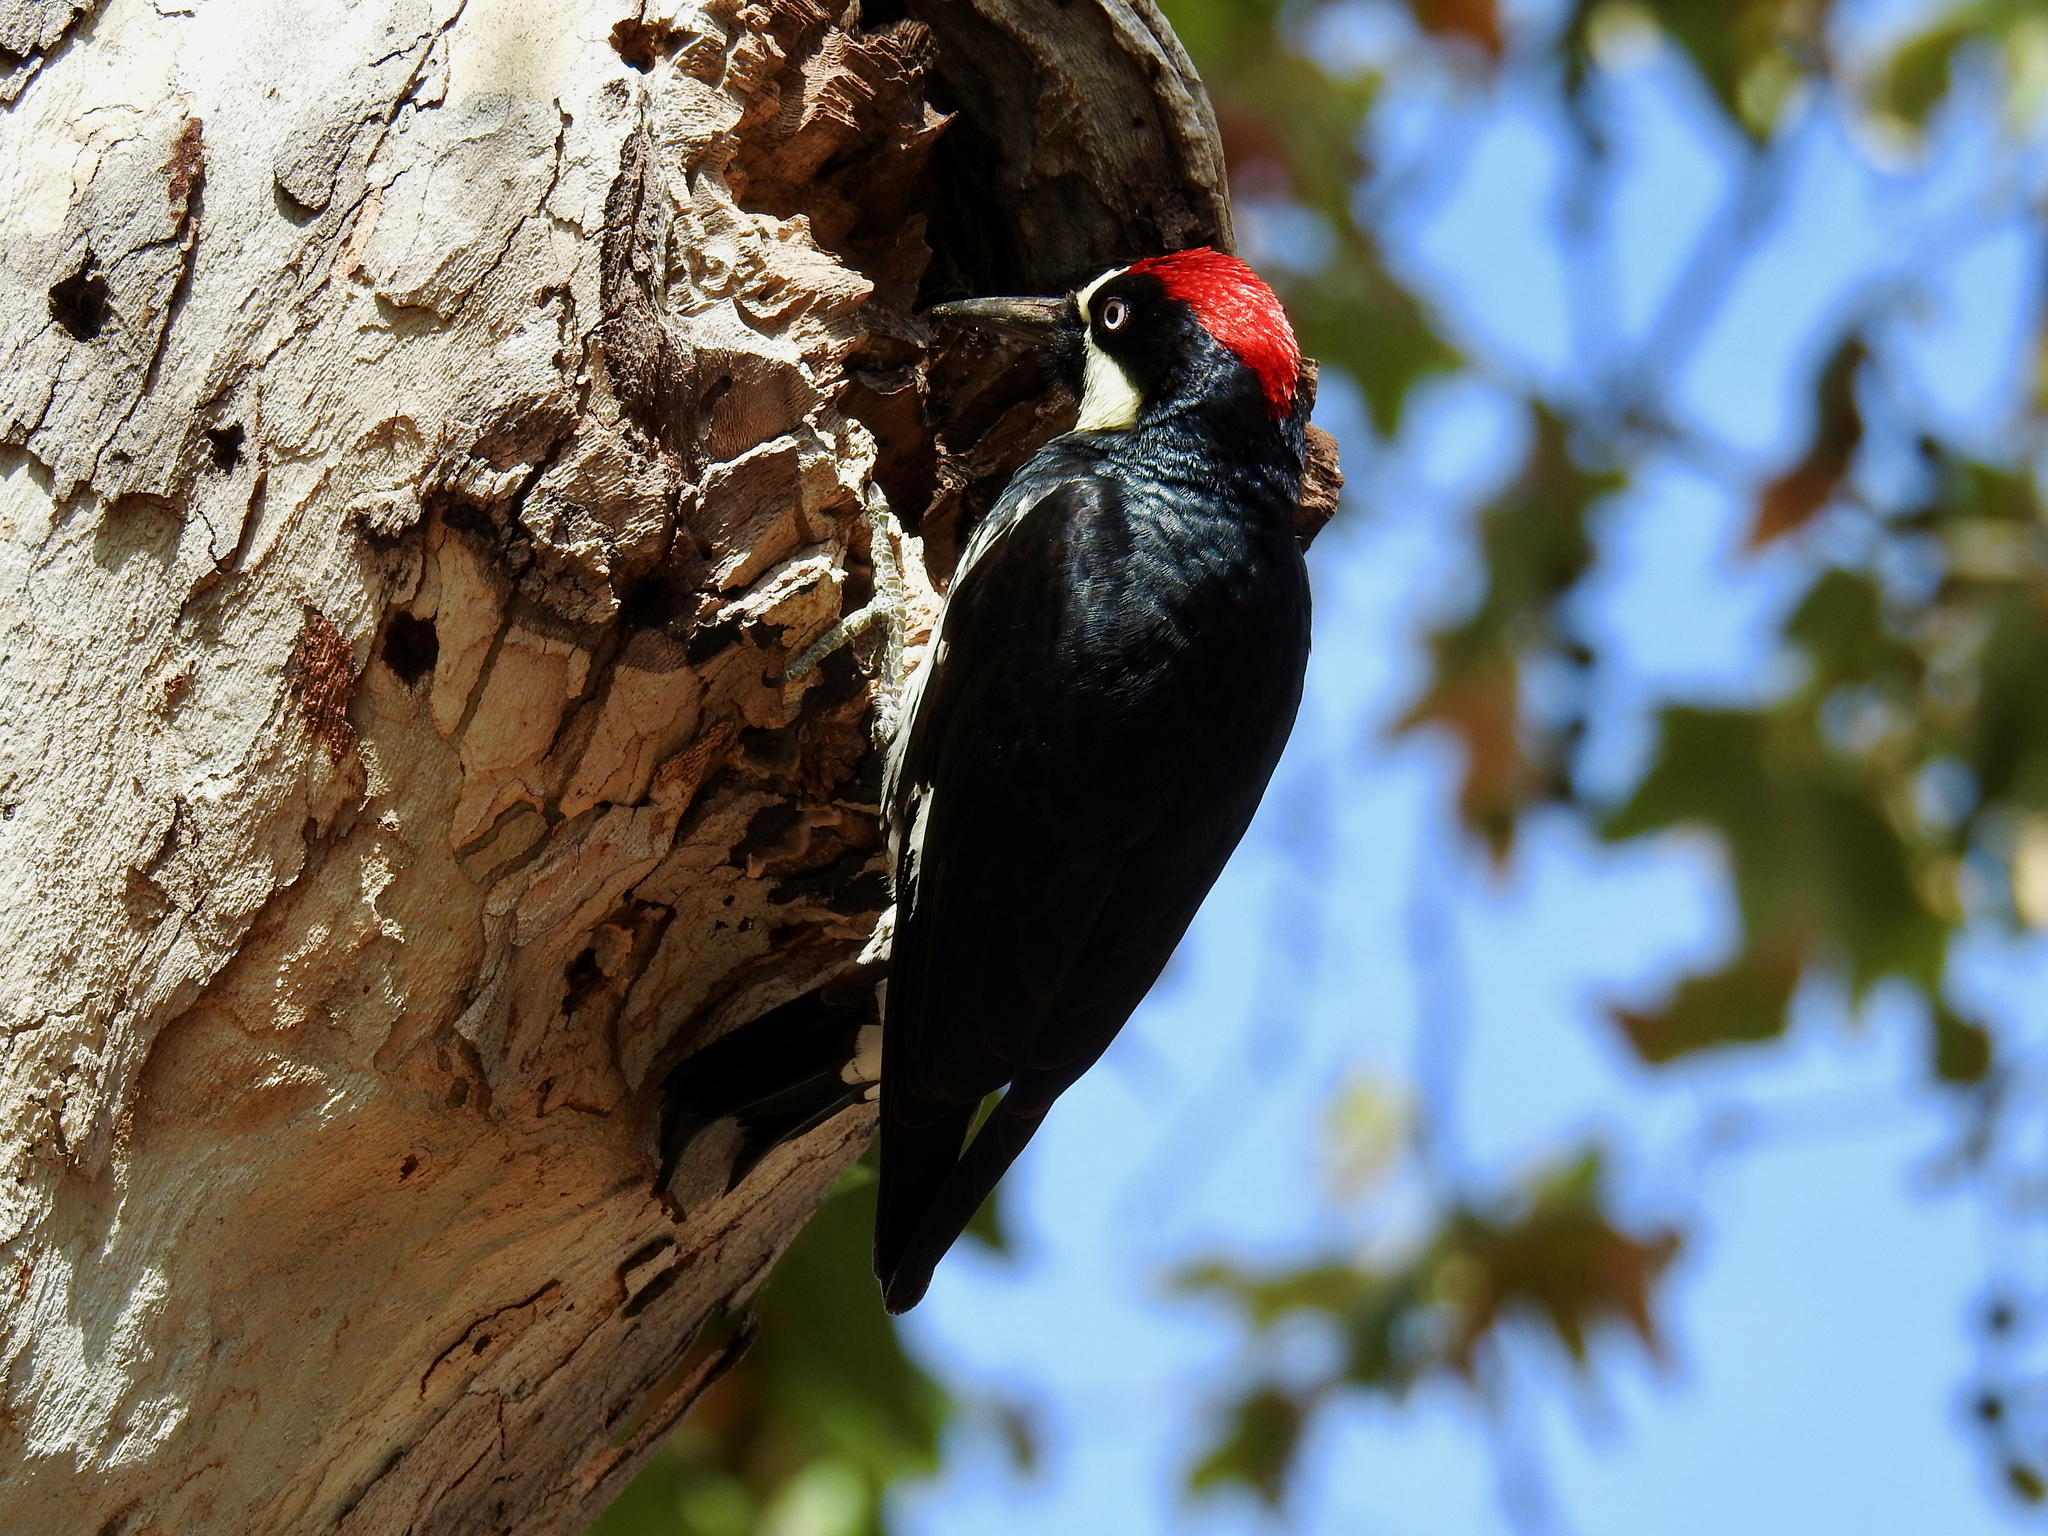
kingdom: Animalia
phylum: Chordata
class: Aves
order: Piciformes
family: Picidae
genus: Melanerpes
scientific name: Melanerpes formicivorus
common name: Acorn woodpecker
